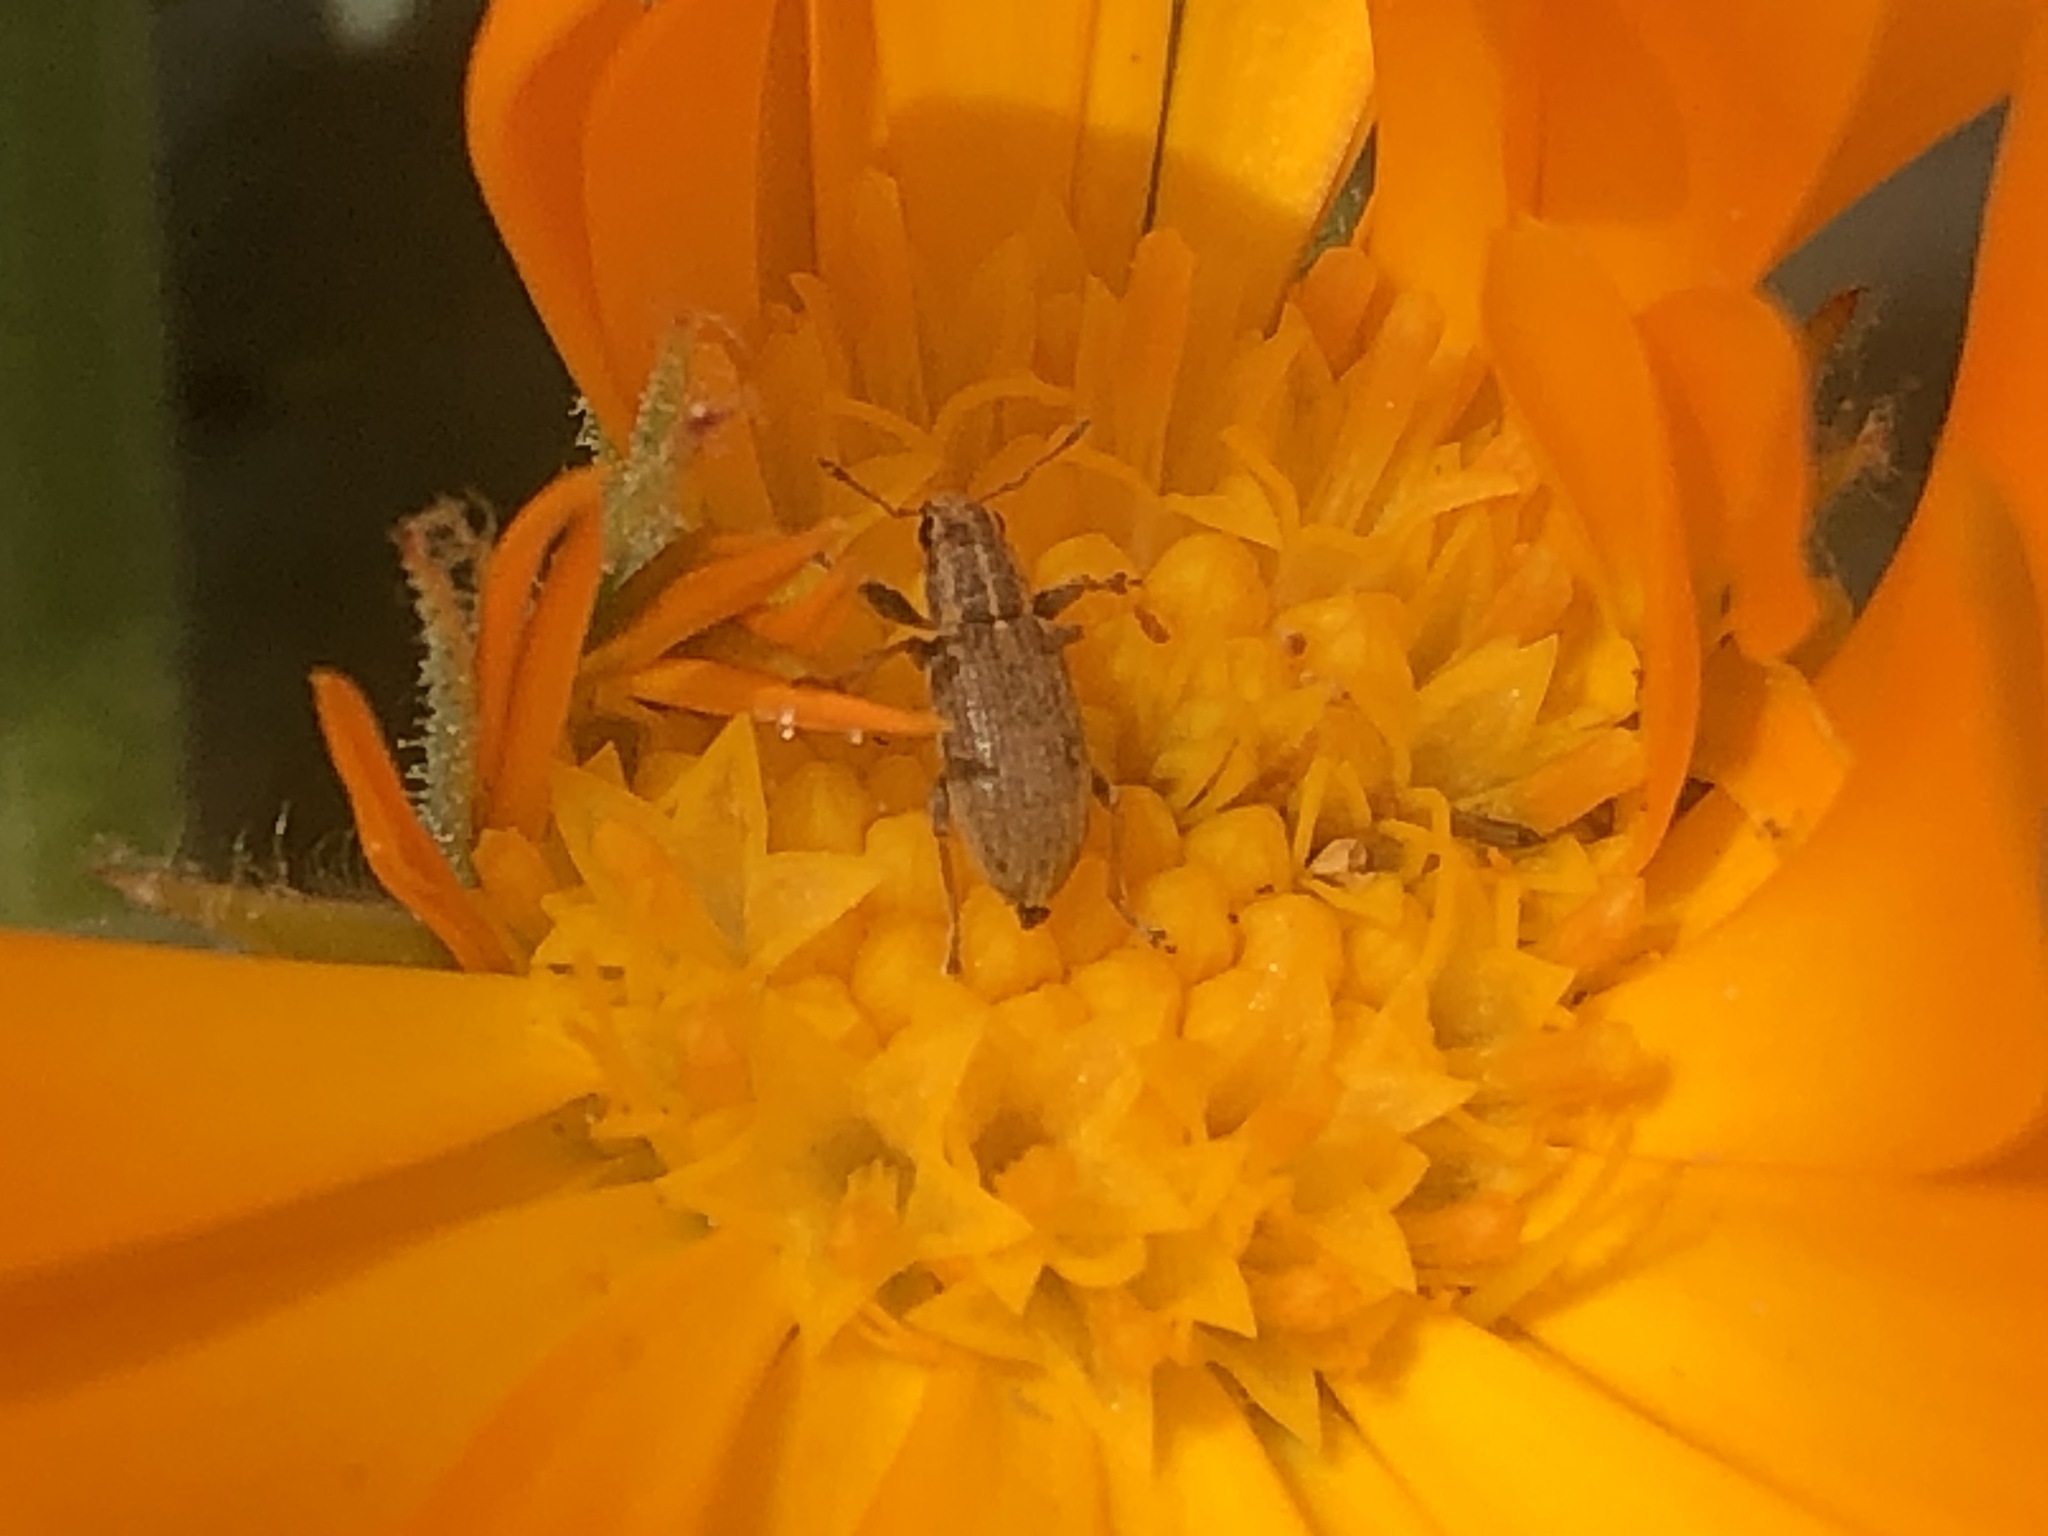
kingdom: Animalia
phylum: Arthropoda
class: Insecta
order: Coleoptera
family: Curculionidae
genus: Sitona
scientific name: Sitona lineatus
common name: Weevil
